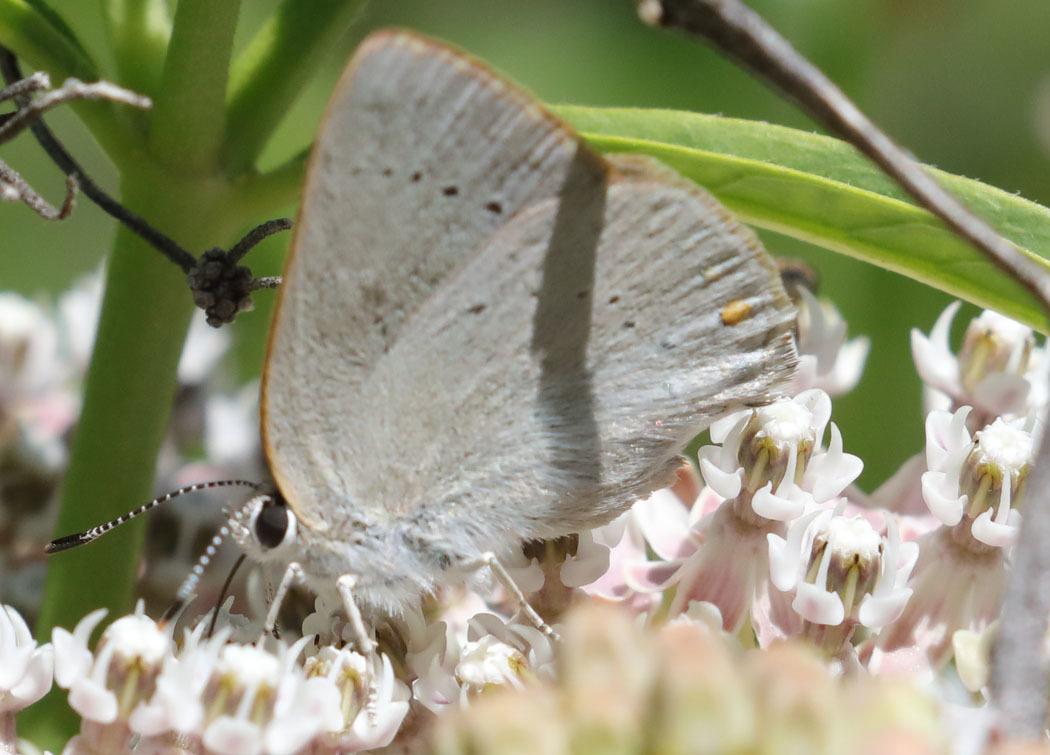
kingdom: Animalia
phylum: Arthropoda
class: Insecta
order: Lepidoptera
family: Lycaenidae
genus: Thecla
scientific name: Thecla dryope
